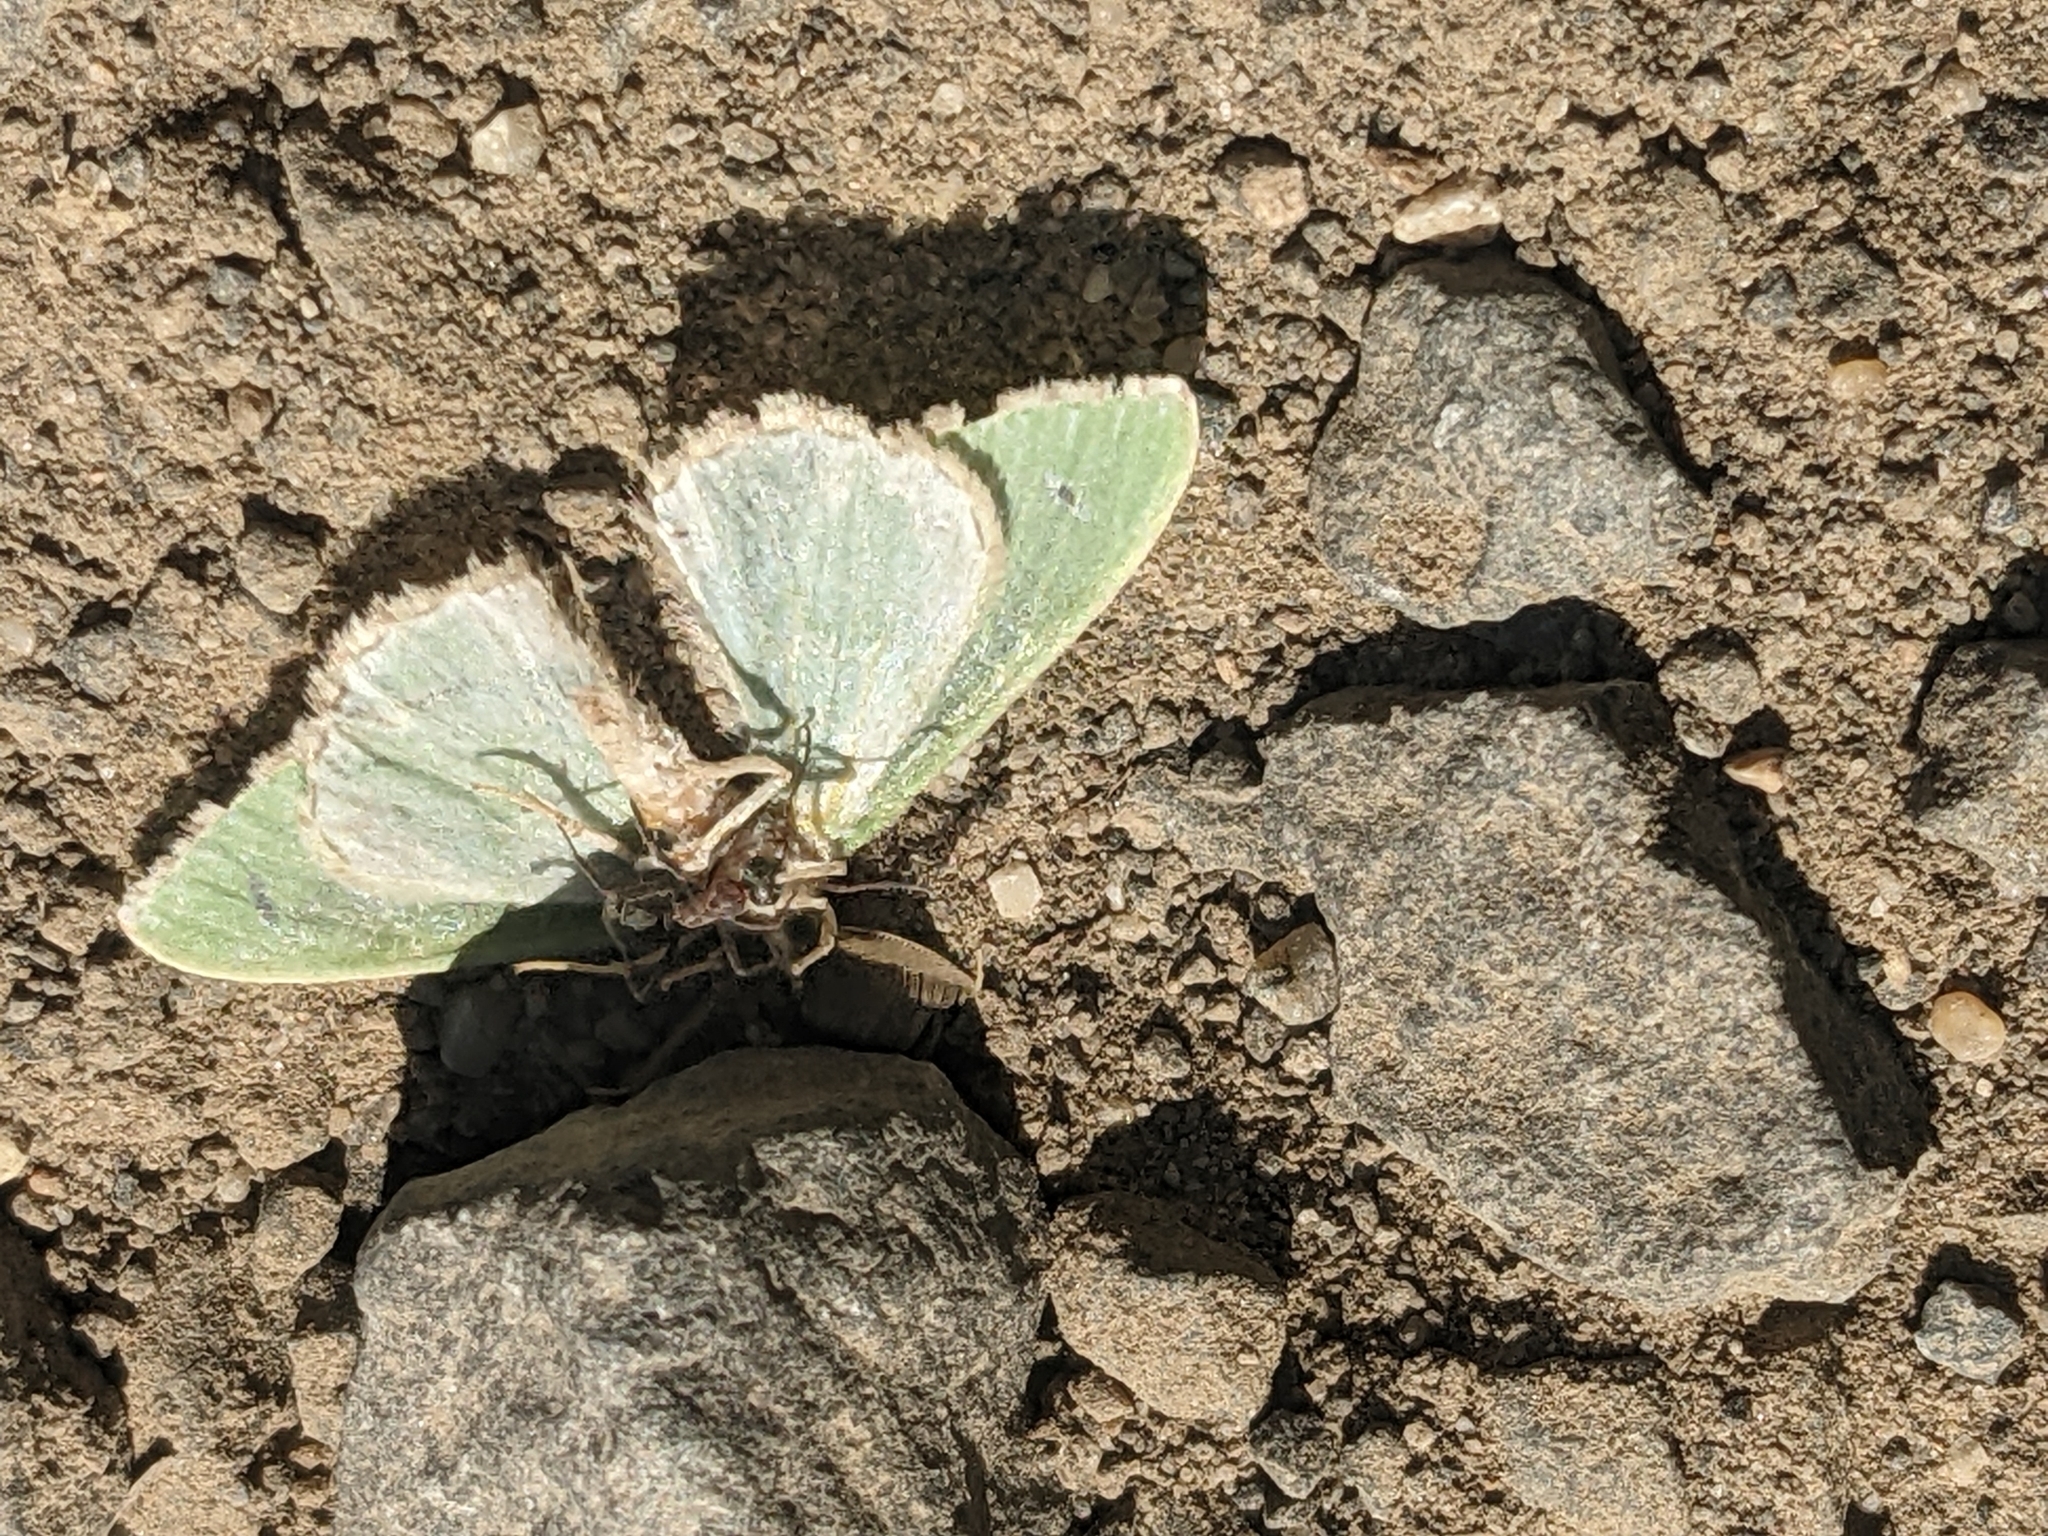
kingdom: Animalia
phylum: Arthropoda
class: Insecta
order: Lepidoptera
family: Geometridae
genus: Comibaena
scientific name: Comibaena bajularia
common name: Blotched emerald
